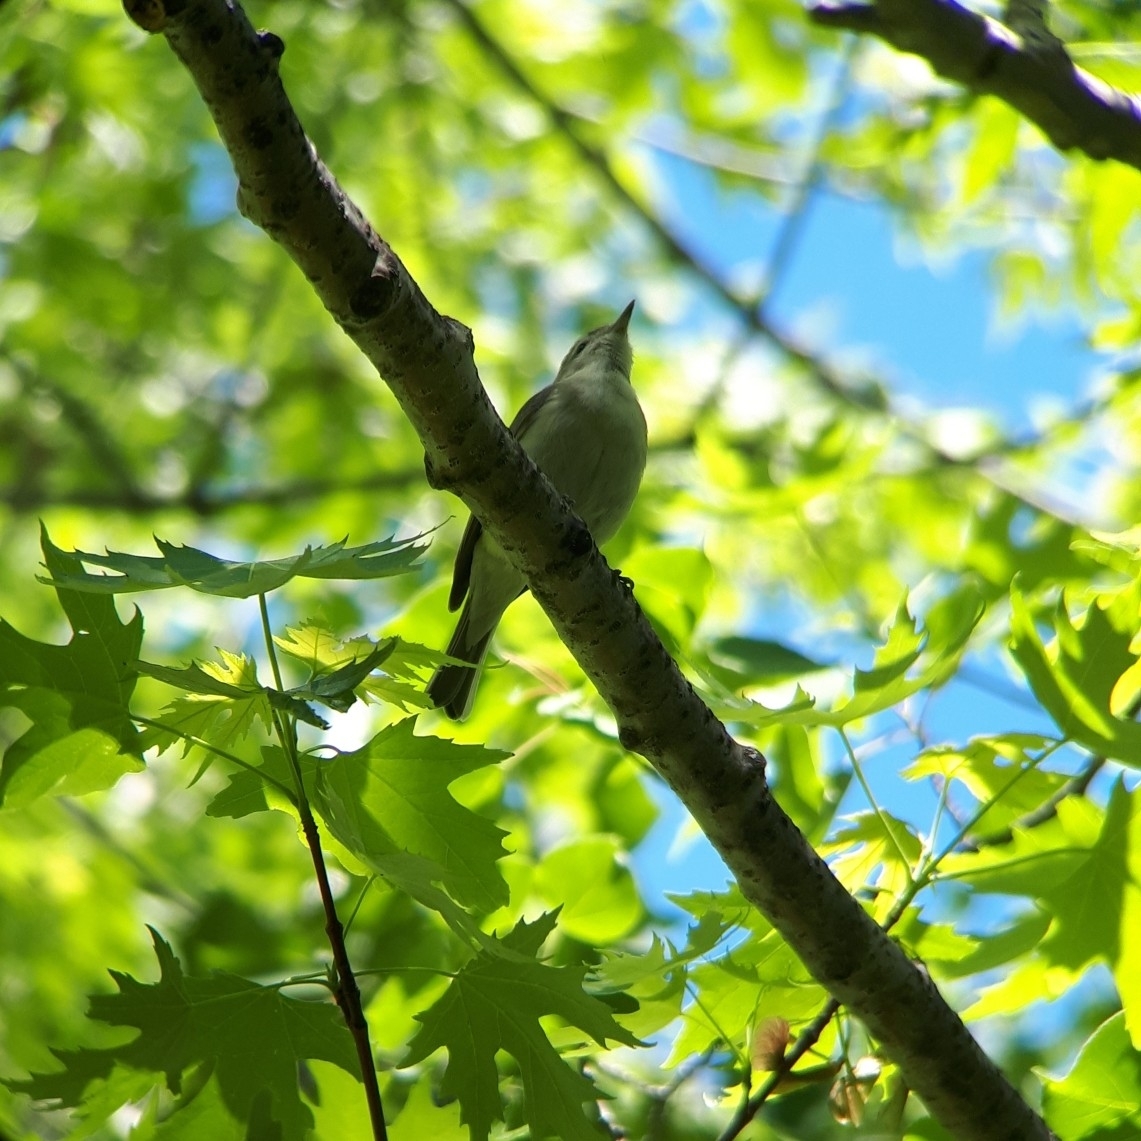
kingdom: Animalia
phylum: Chordata
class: Aves
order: Passeriformes
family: Vireonidae
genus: Vireo
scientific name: Vireo gilvus
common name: Warbling vireo
